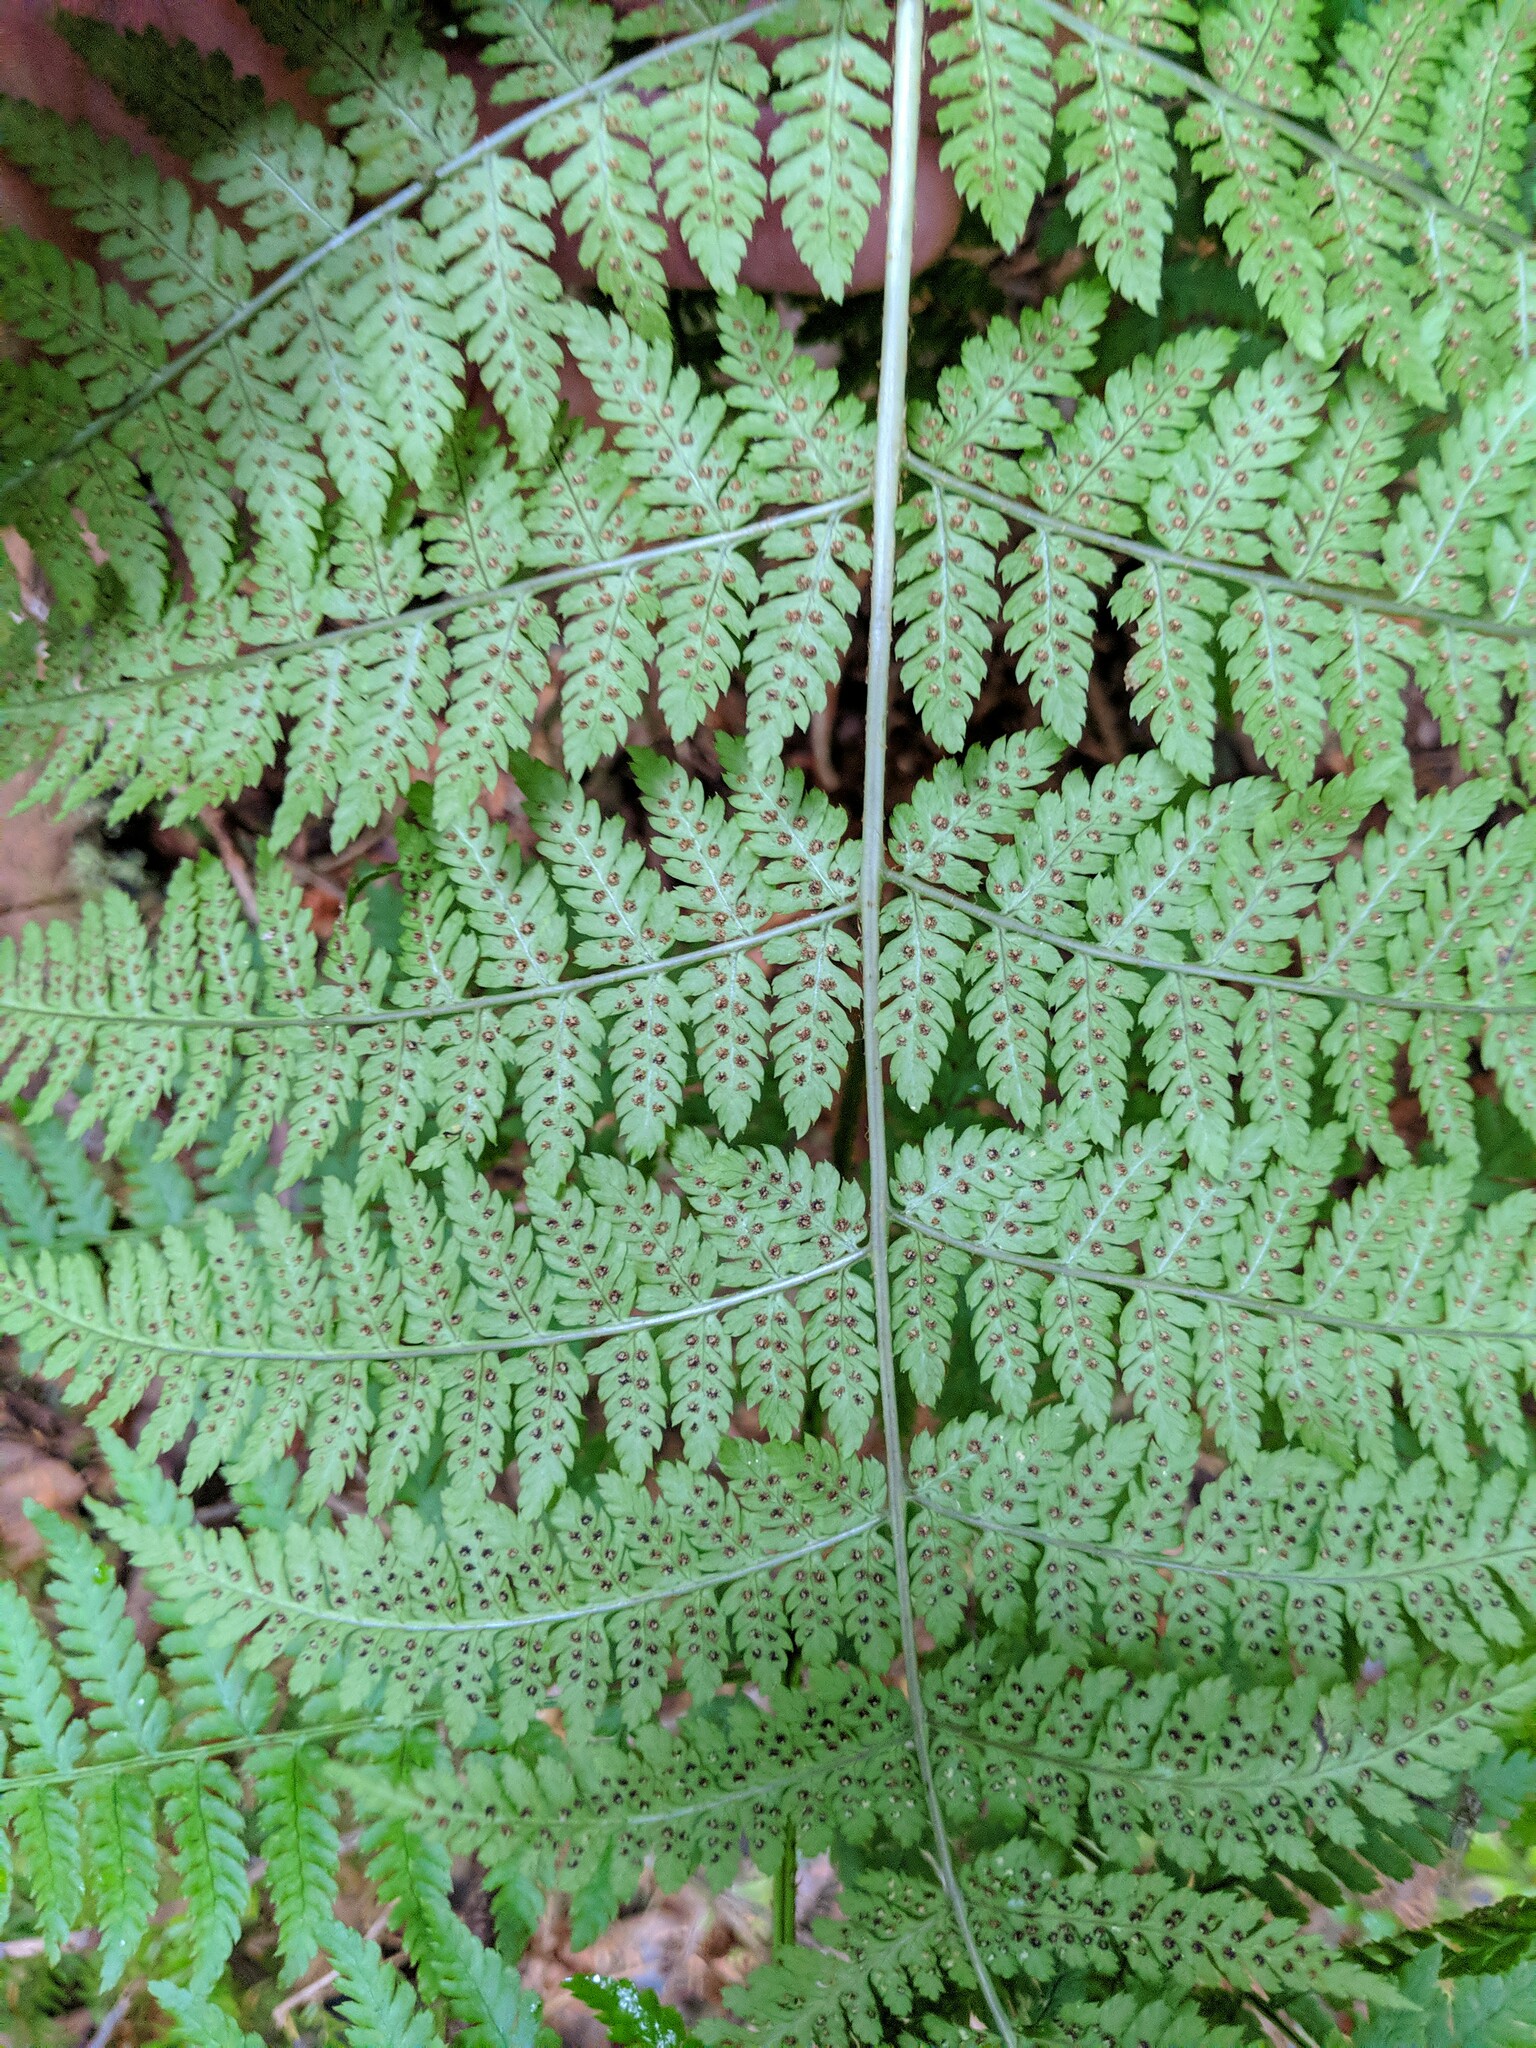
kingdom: Plantae
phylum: Tracheophyta
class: Polypodiopsida
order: Polypodiales
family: Dryopteridaceae
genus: Dryopteris
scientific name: Dryopteris expansa
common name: Northern buckler fern
